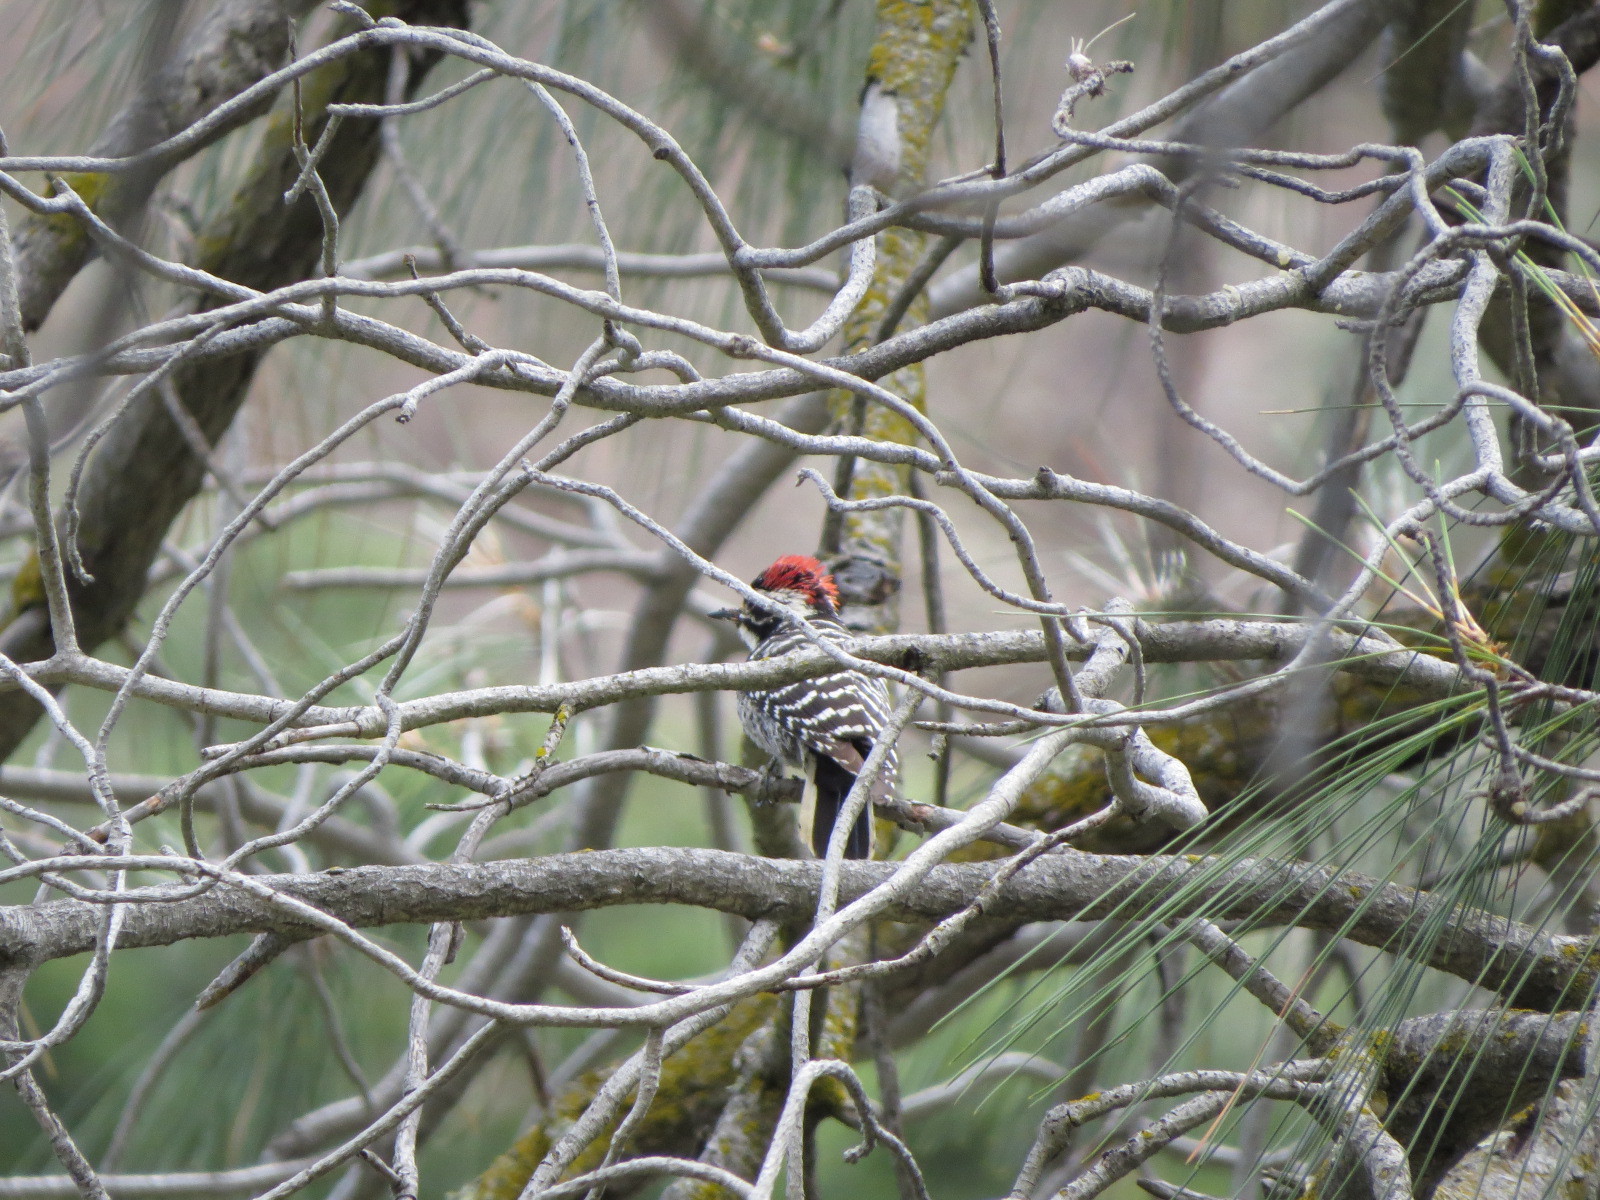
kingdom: Animalia
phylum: Chordata
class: Aves
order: Piciformes
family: Picidae
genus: Dryobates
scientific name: Dryobates nuttallii
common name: Nuttall's woodpecker
